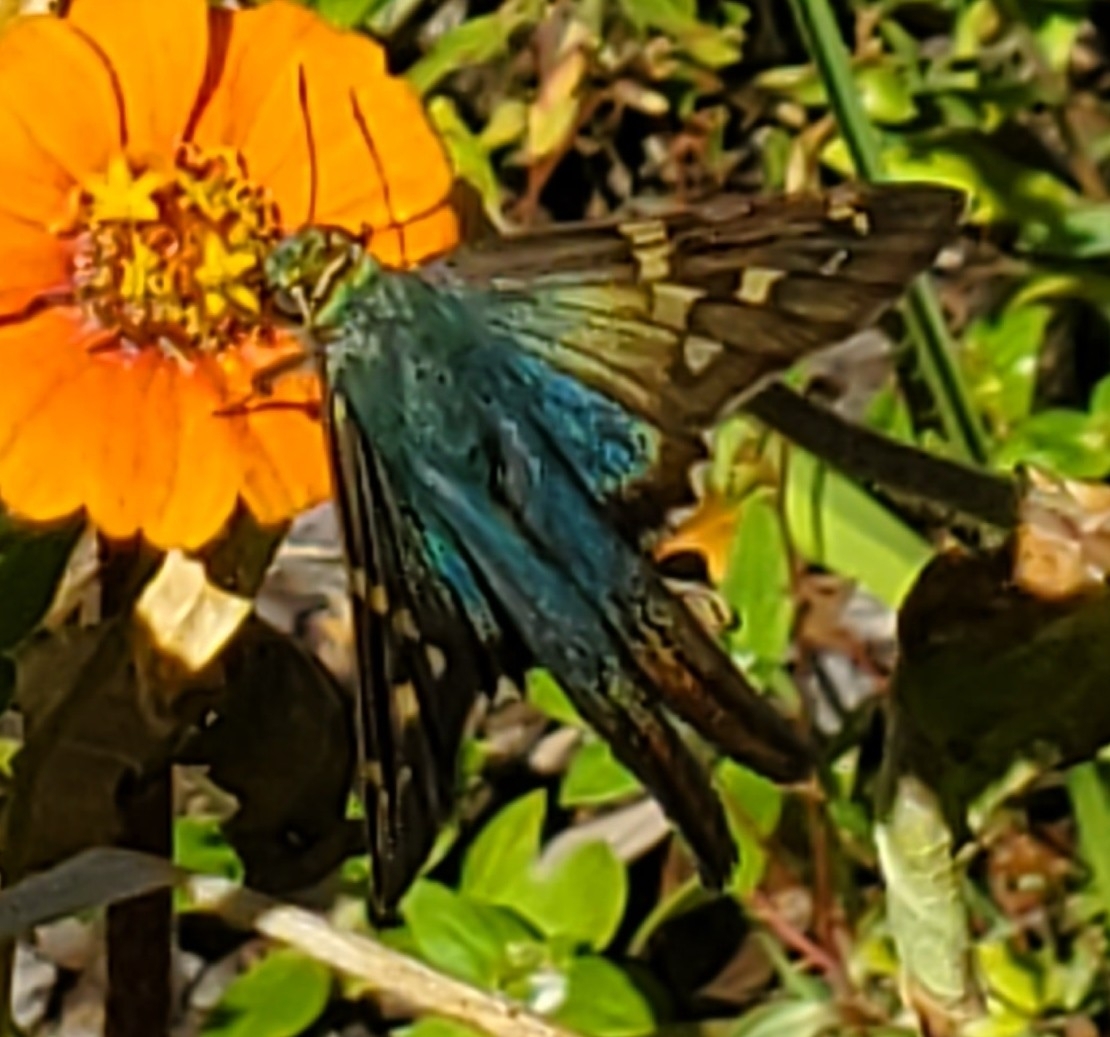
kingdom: Animalia
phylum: Arthropoda
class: Insecta
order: Lepidoptera
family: Hesperiidae
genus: Urbanus
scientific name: Urbanus proteus
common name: Long-tailed skipper
